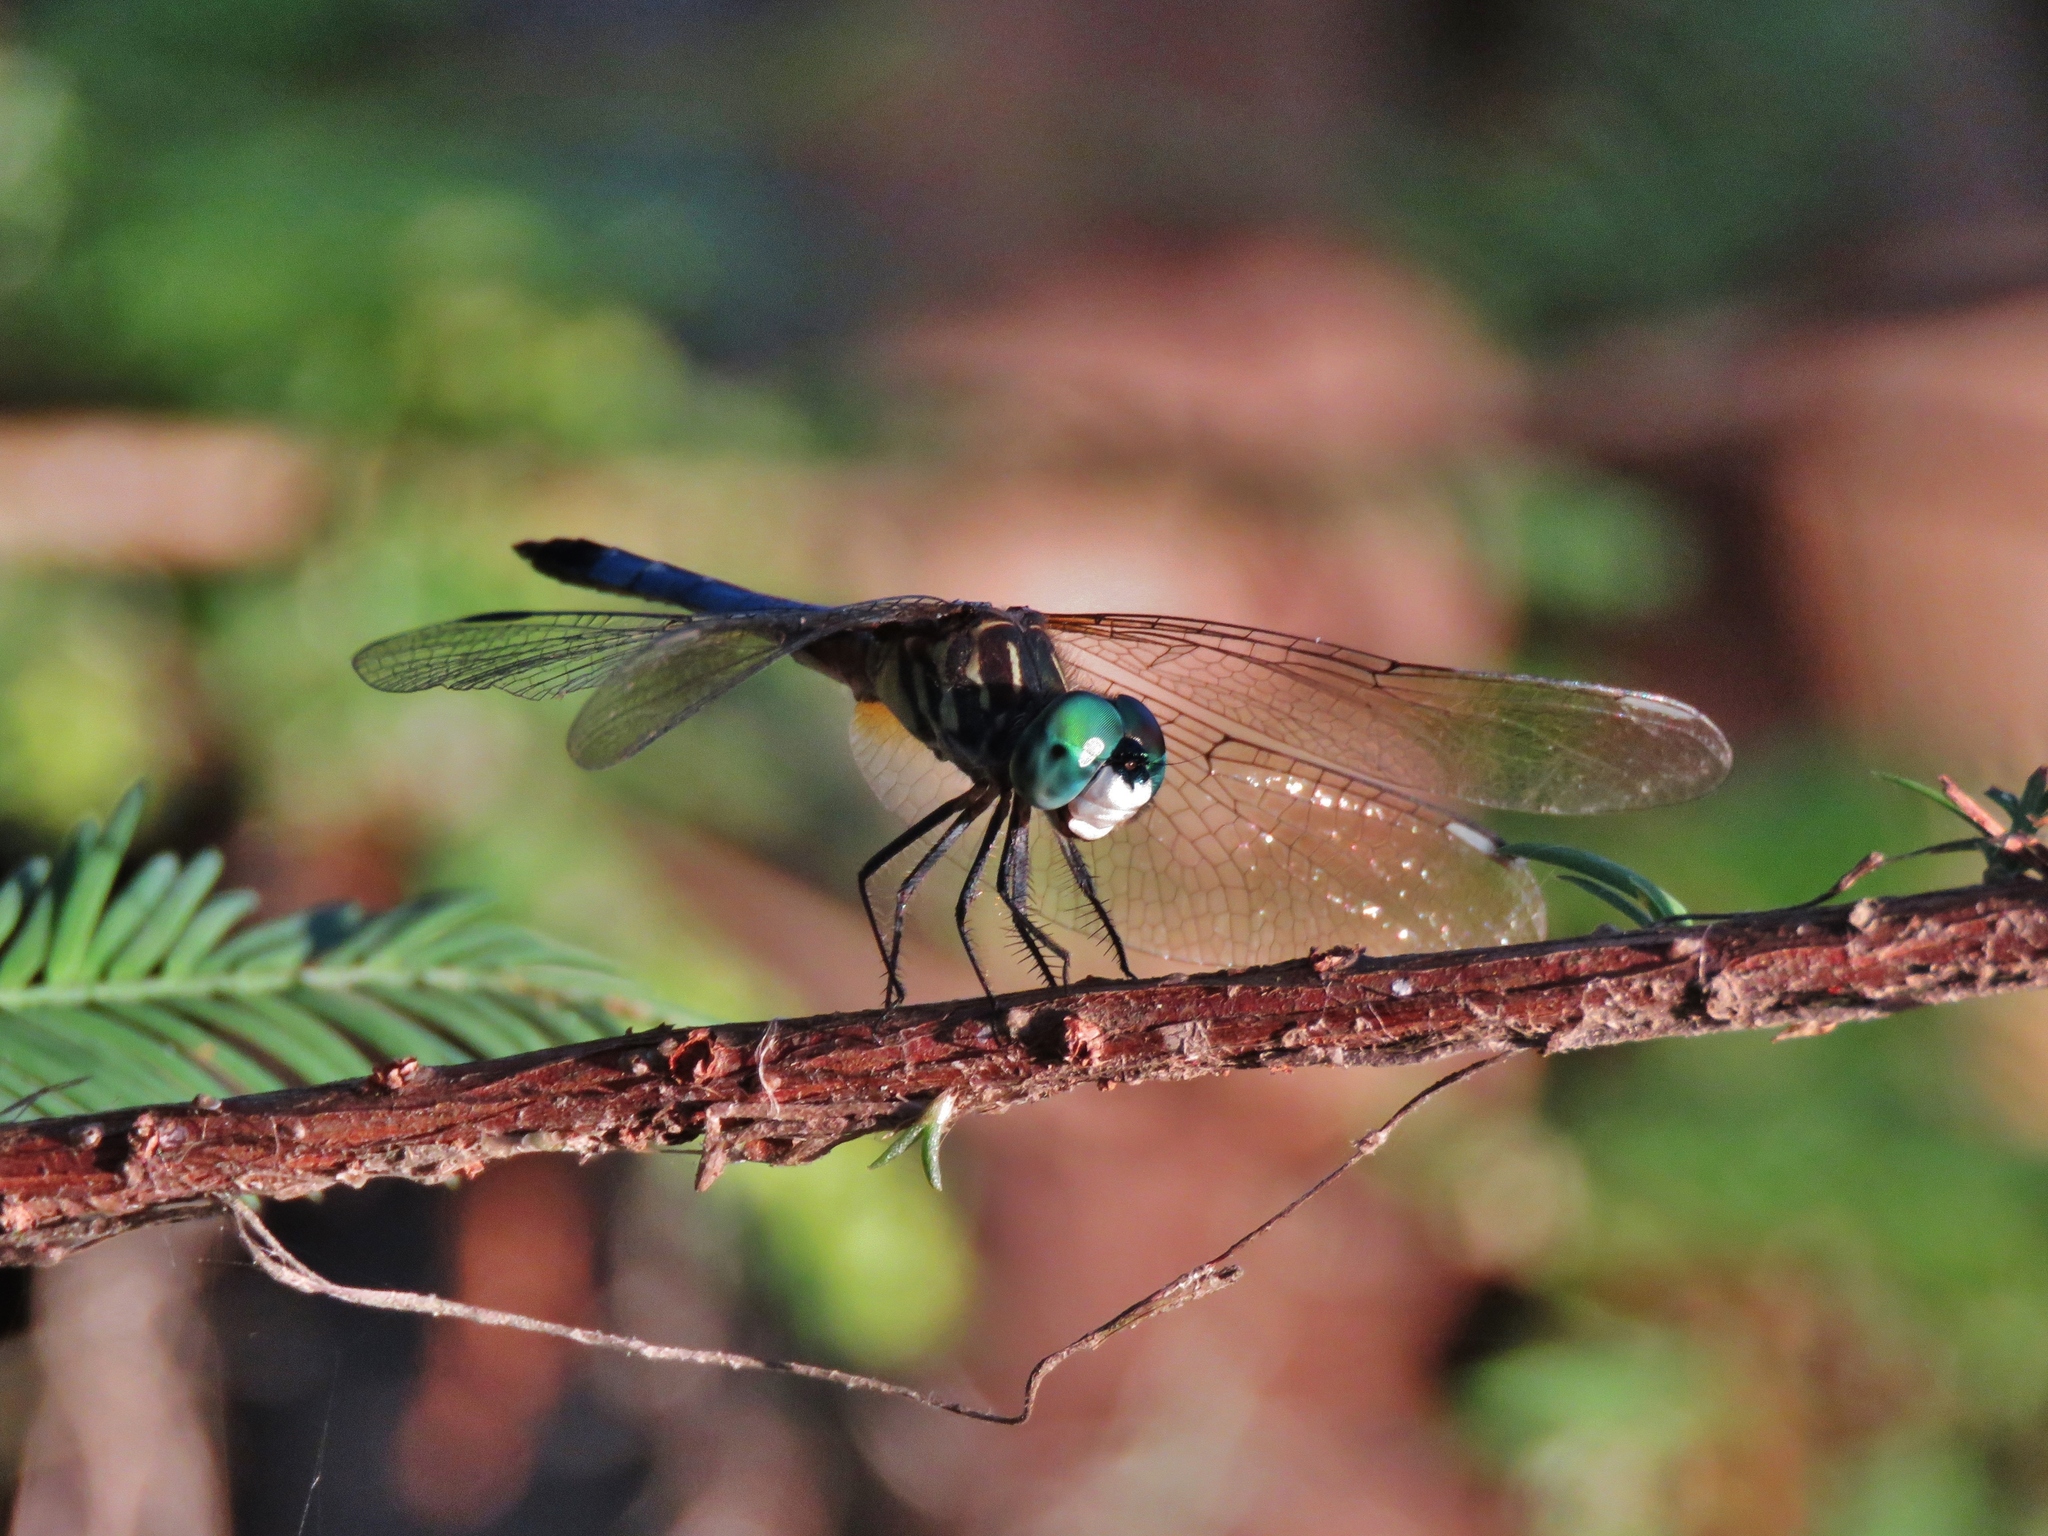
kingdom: Animalia
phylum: Arthropoda
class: Insecta
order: Odonata
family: Libellulidae
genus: Pachydiplax
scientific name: Pachydiplax longipennis
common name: Blue dasher
